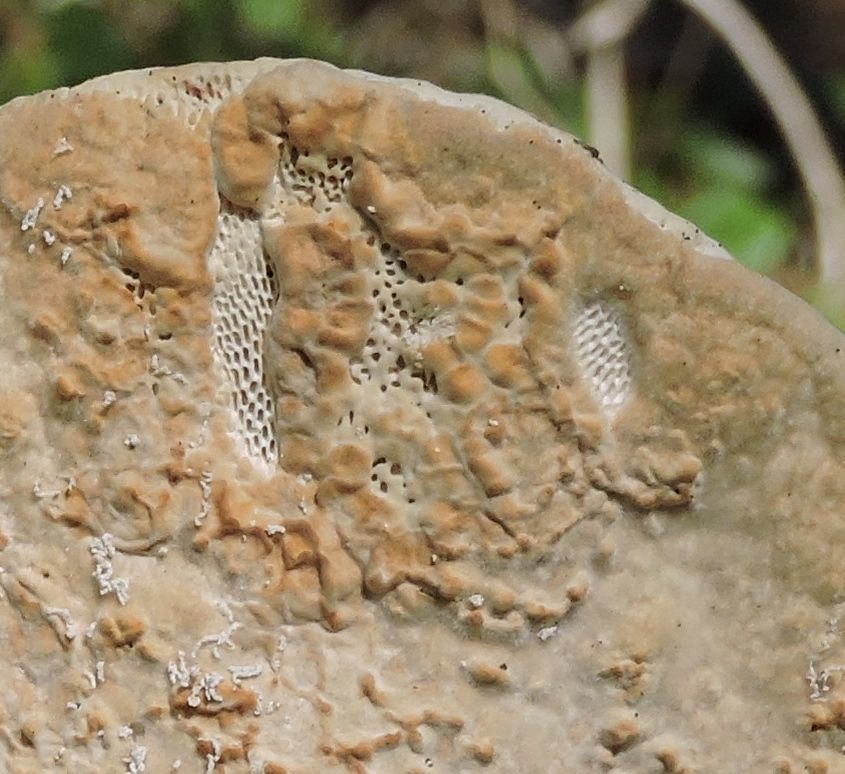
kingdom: Fungi
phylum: Basidiomycota
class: Agaricomycetes
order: Polyporales
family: Polyporaceae
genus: Trametes
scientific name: Trametes gibbosa
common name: Lumpy bracket
